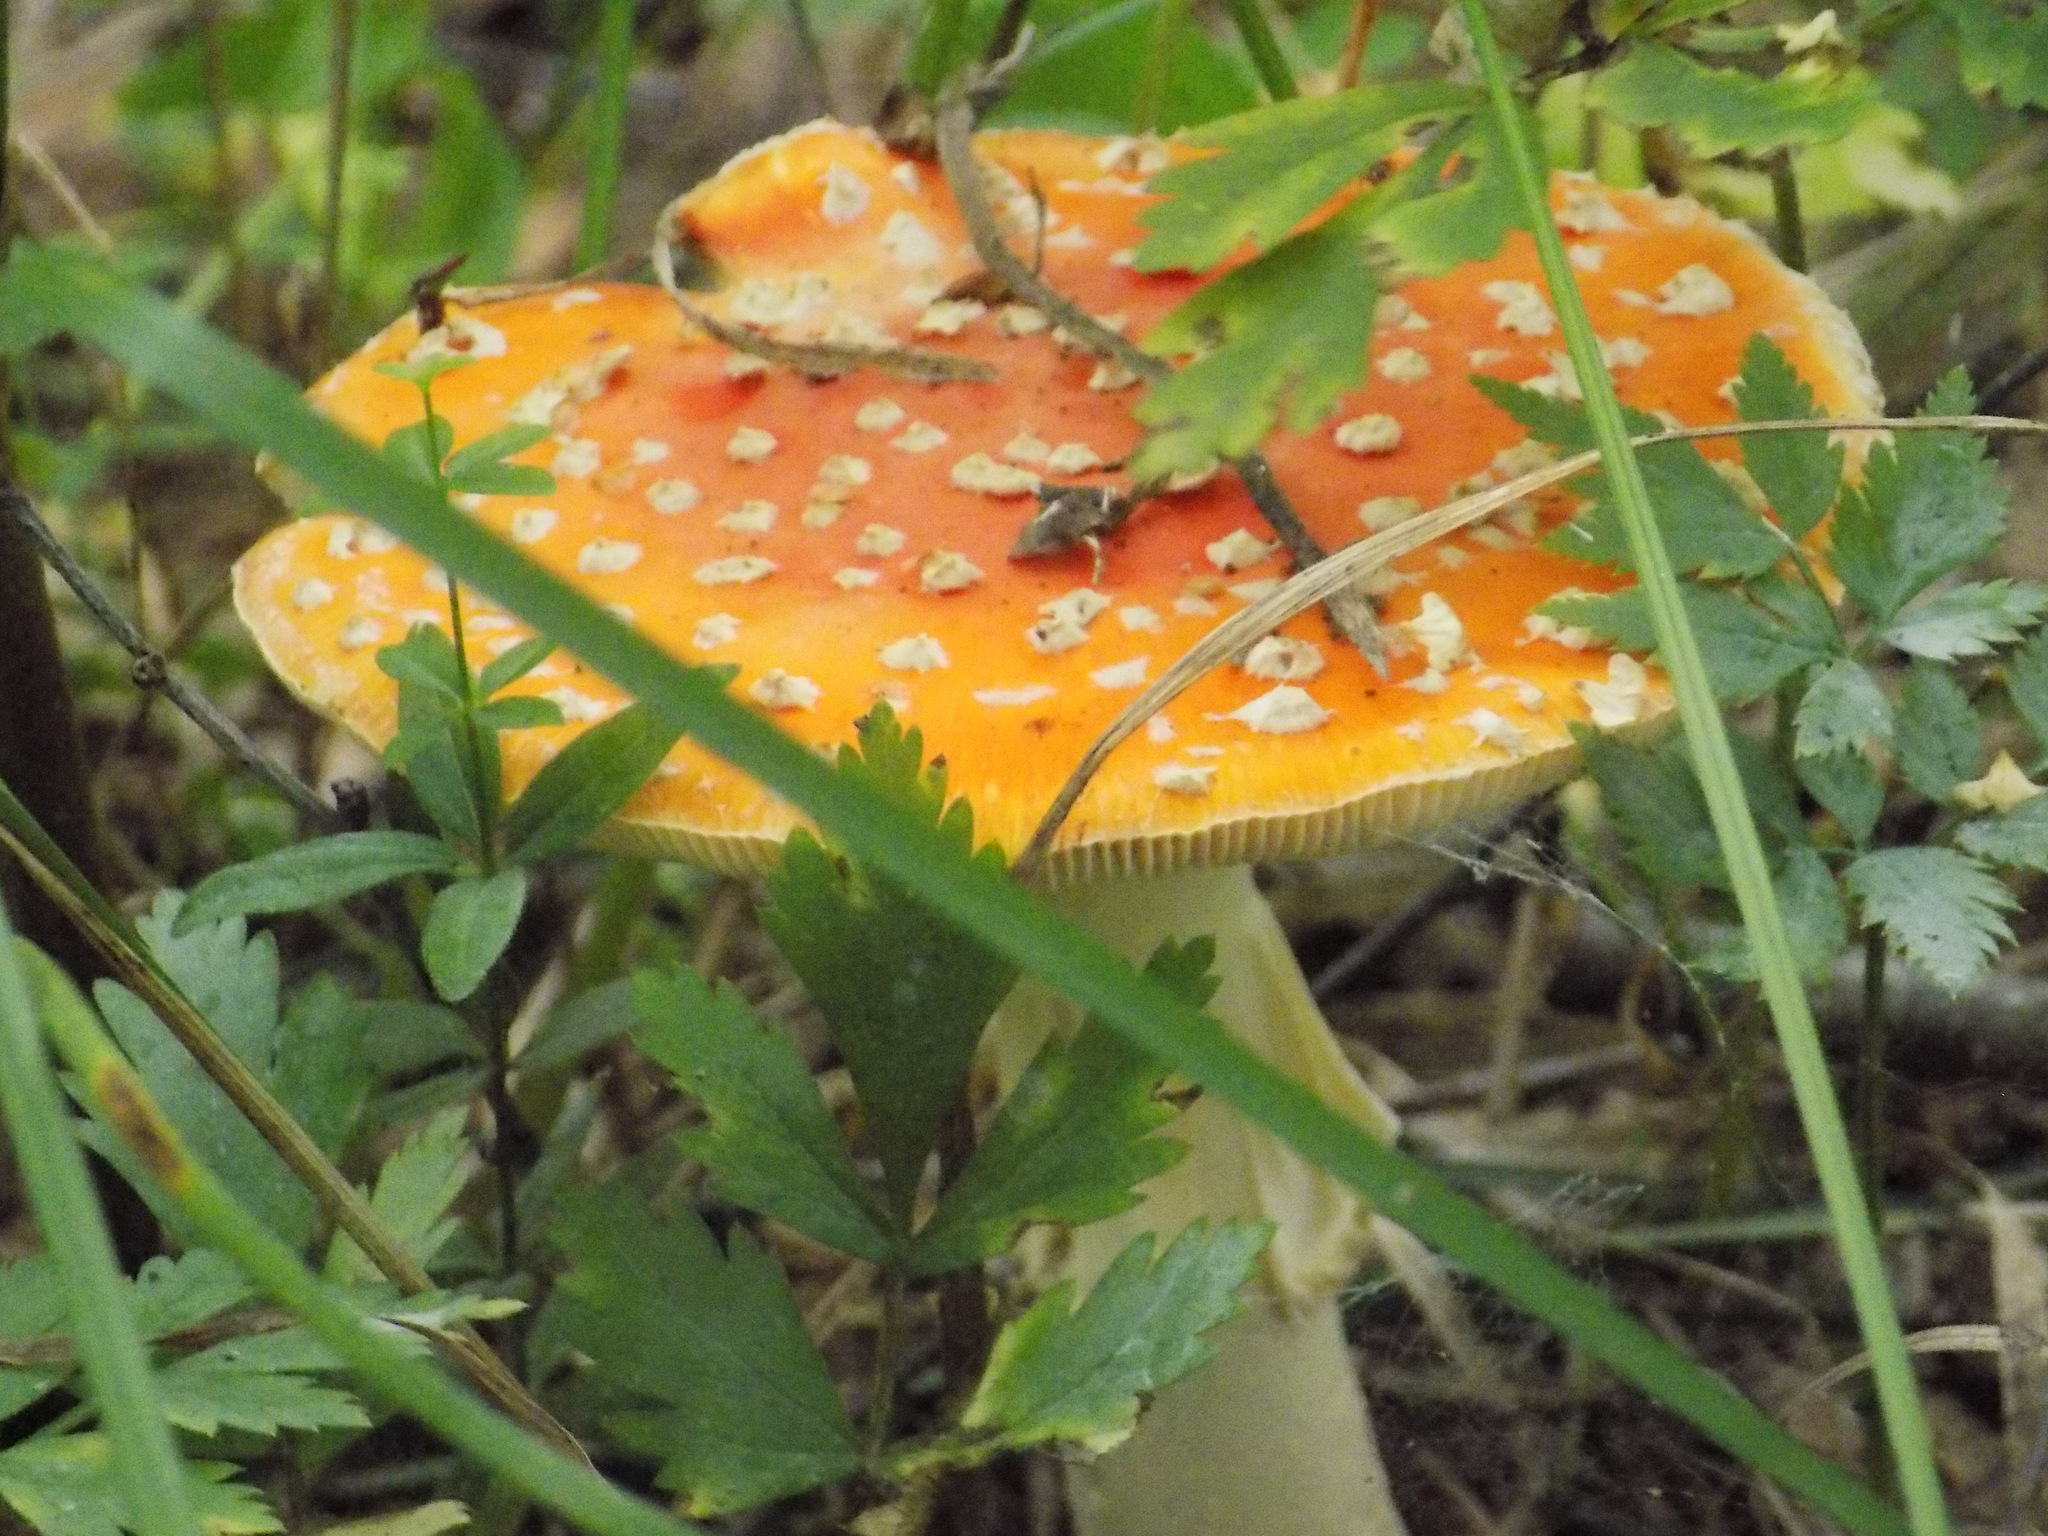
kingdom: Fungi
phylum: Basidiomycota
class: Agaricomycetes
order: Agaricales
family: Amanitaceae
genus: Amanita
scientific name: Amanita muscaria
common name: Fly agaric
